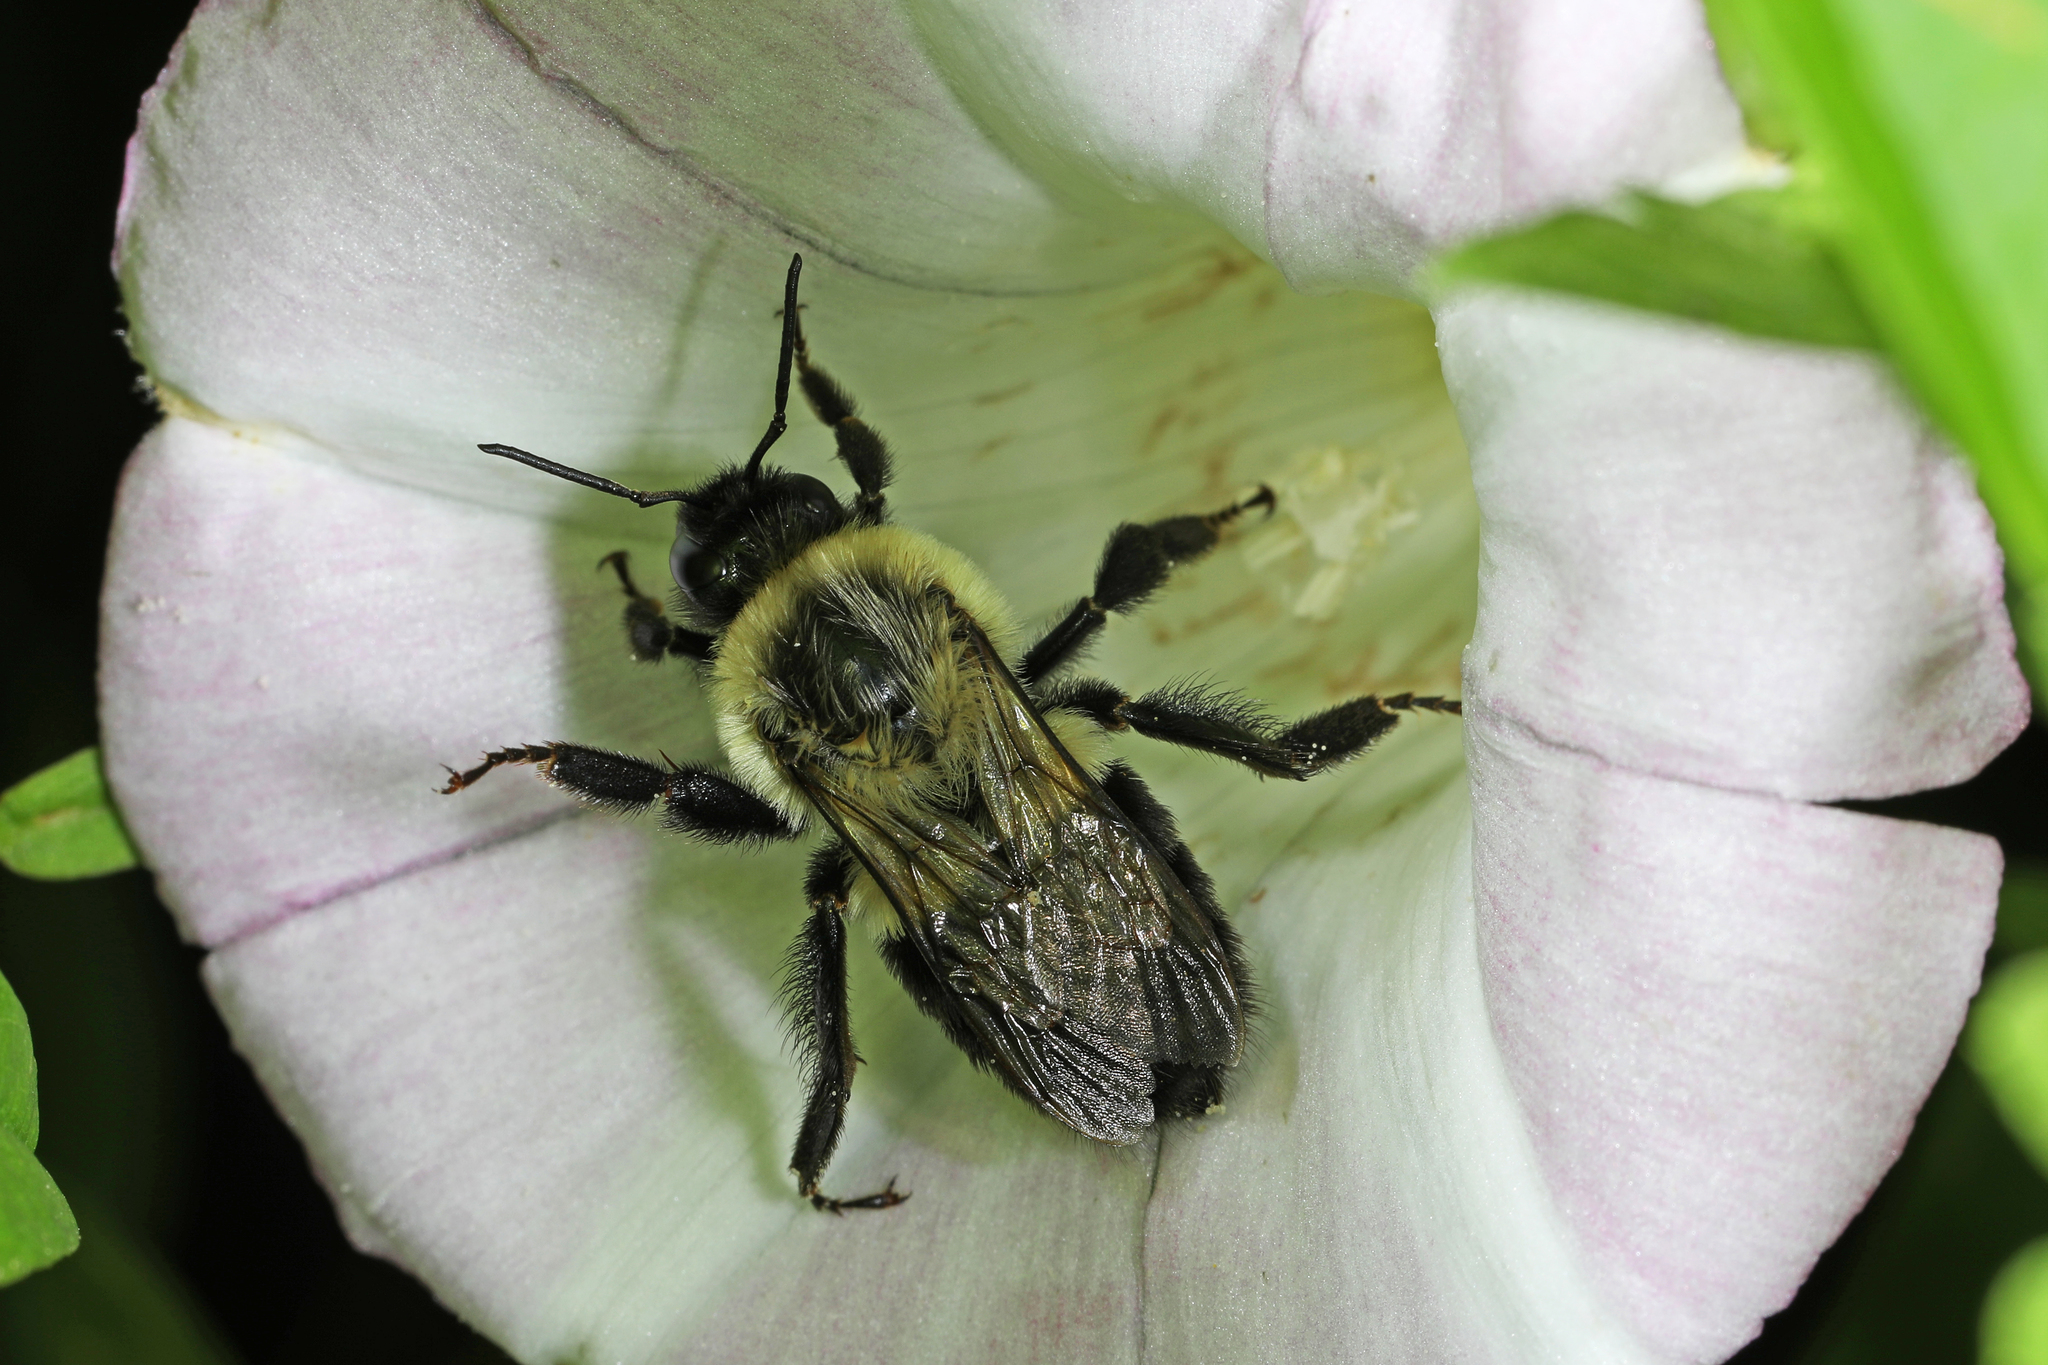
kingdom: Animalia
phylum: Arthropoda
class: Insecta
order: Hymenoptera
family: Apidae
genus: Bombus
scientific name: Bombus impatiens
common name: Common eastern bumble bee
